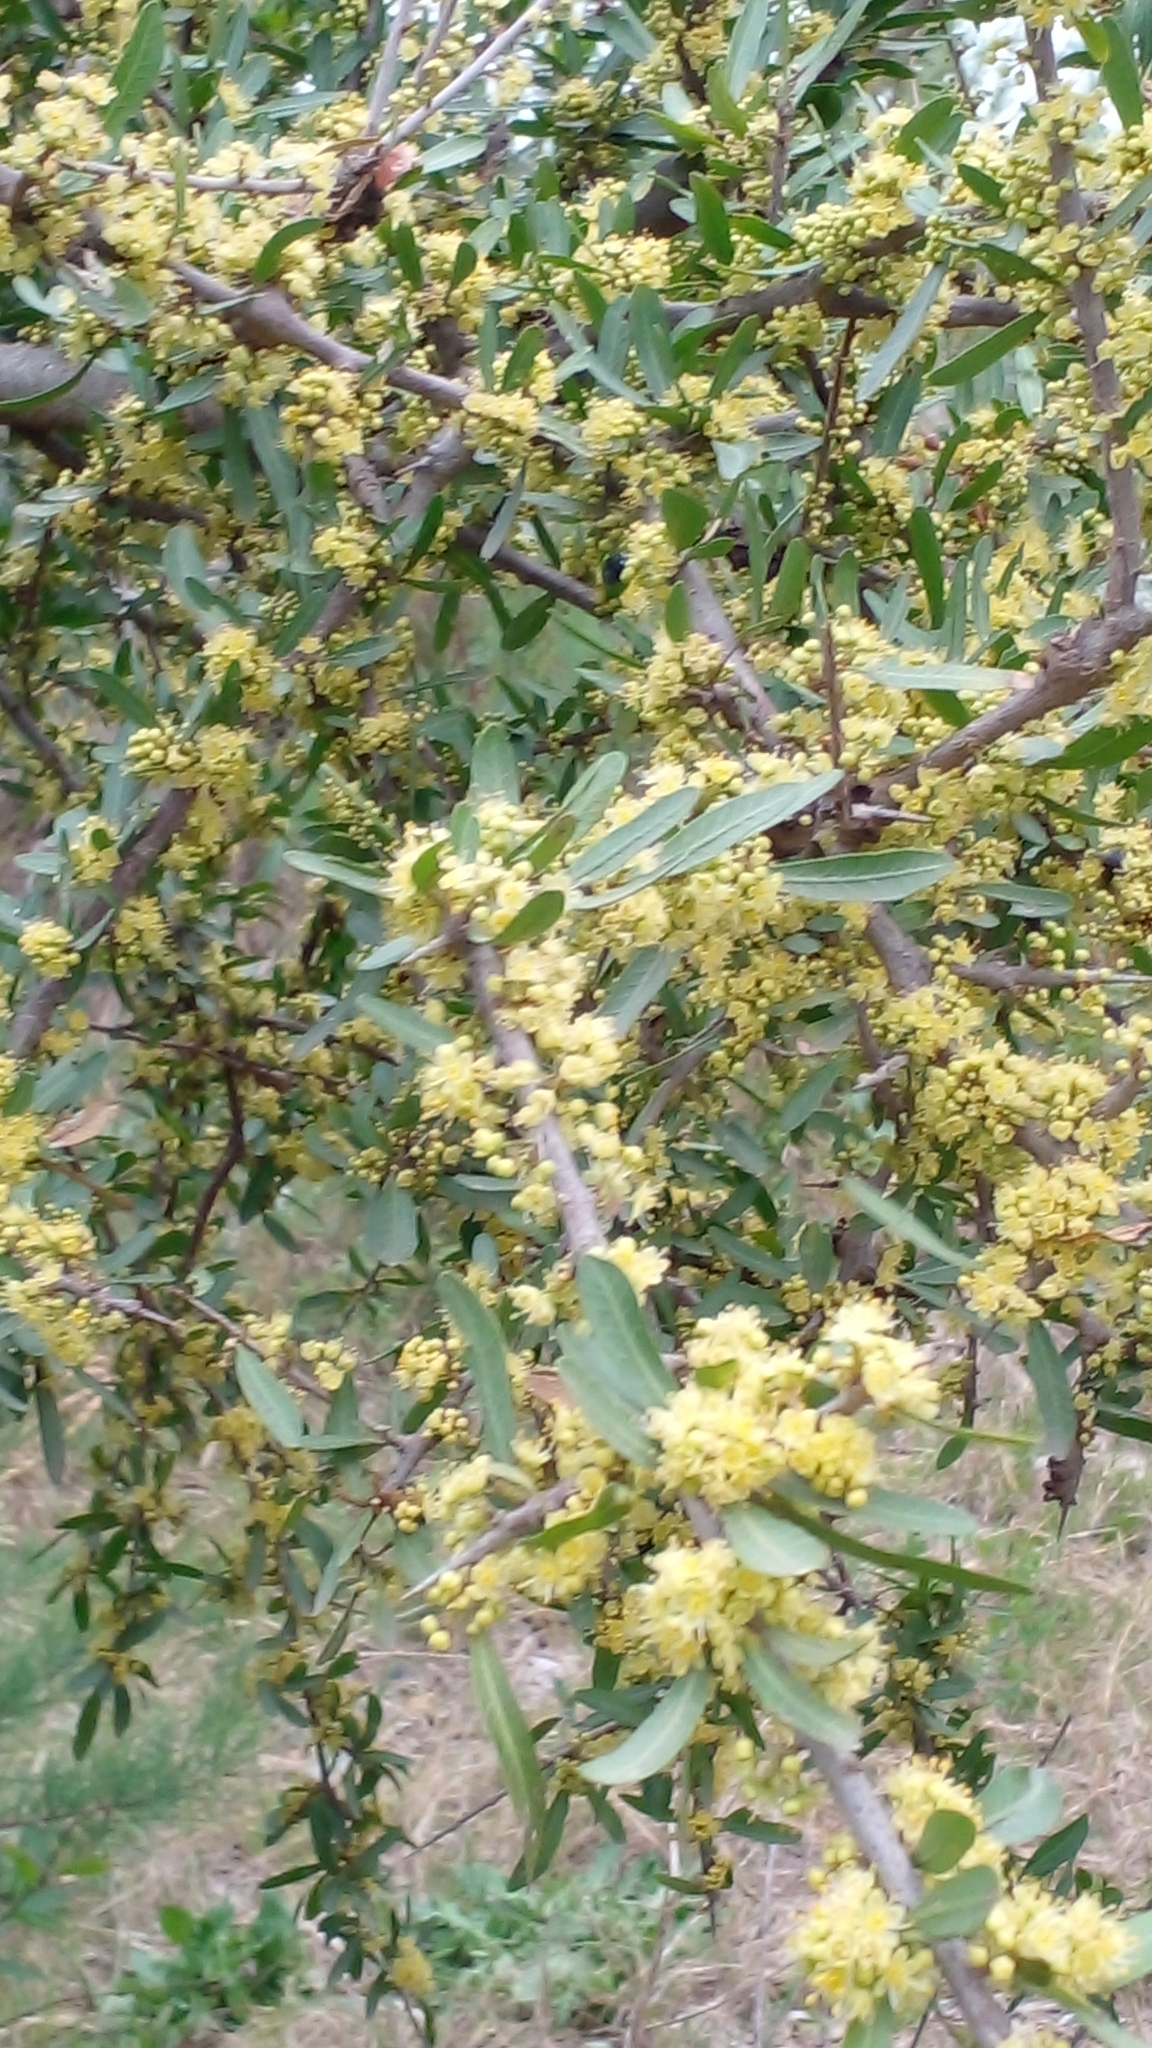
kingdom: Plantae
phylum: Tracheophyta
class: Magnoliopsida
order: Sapindales
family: Anacardiaceae
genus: Schinus
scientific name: Schinus longifolia
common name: Longleaf peppertree
